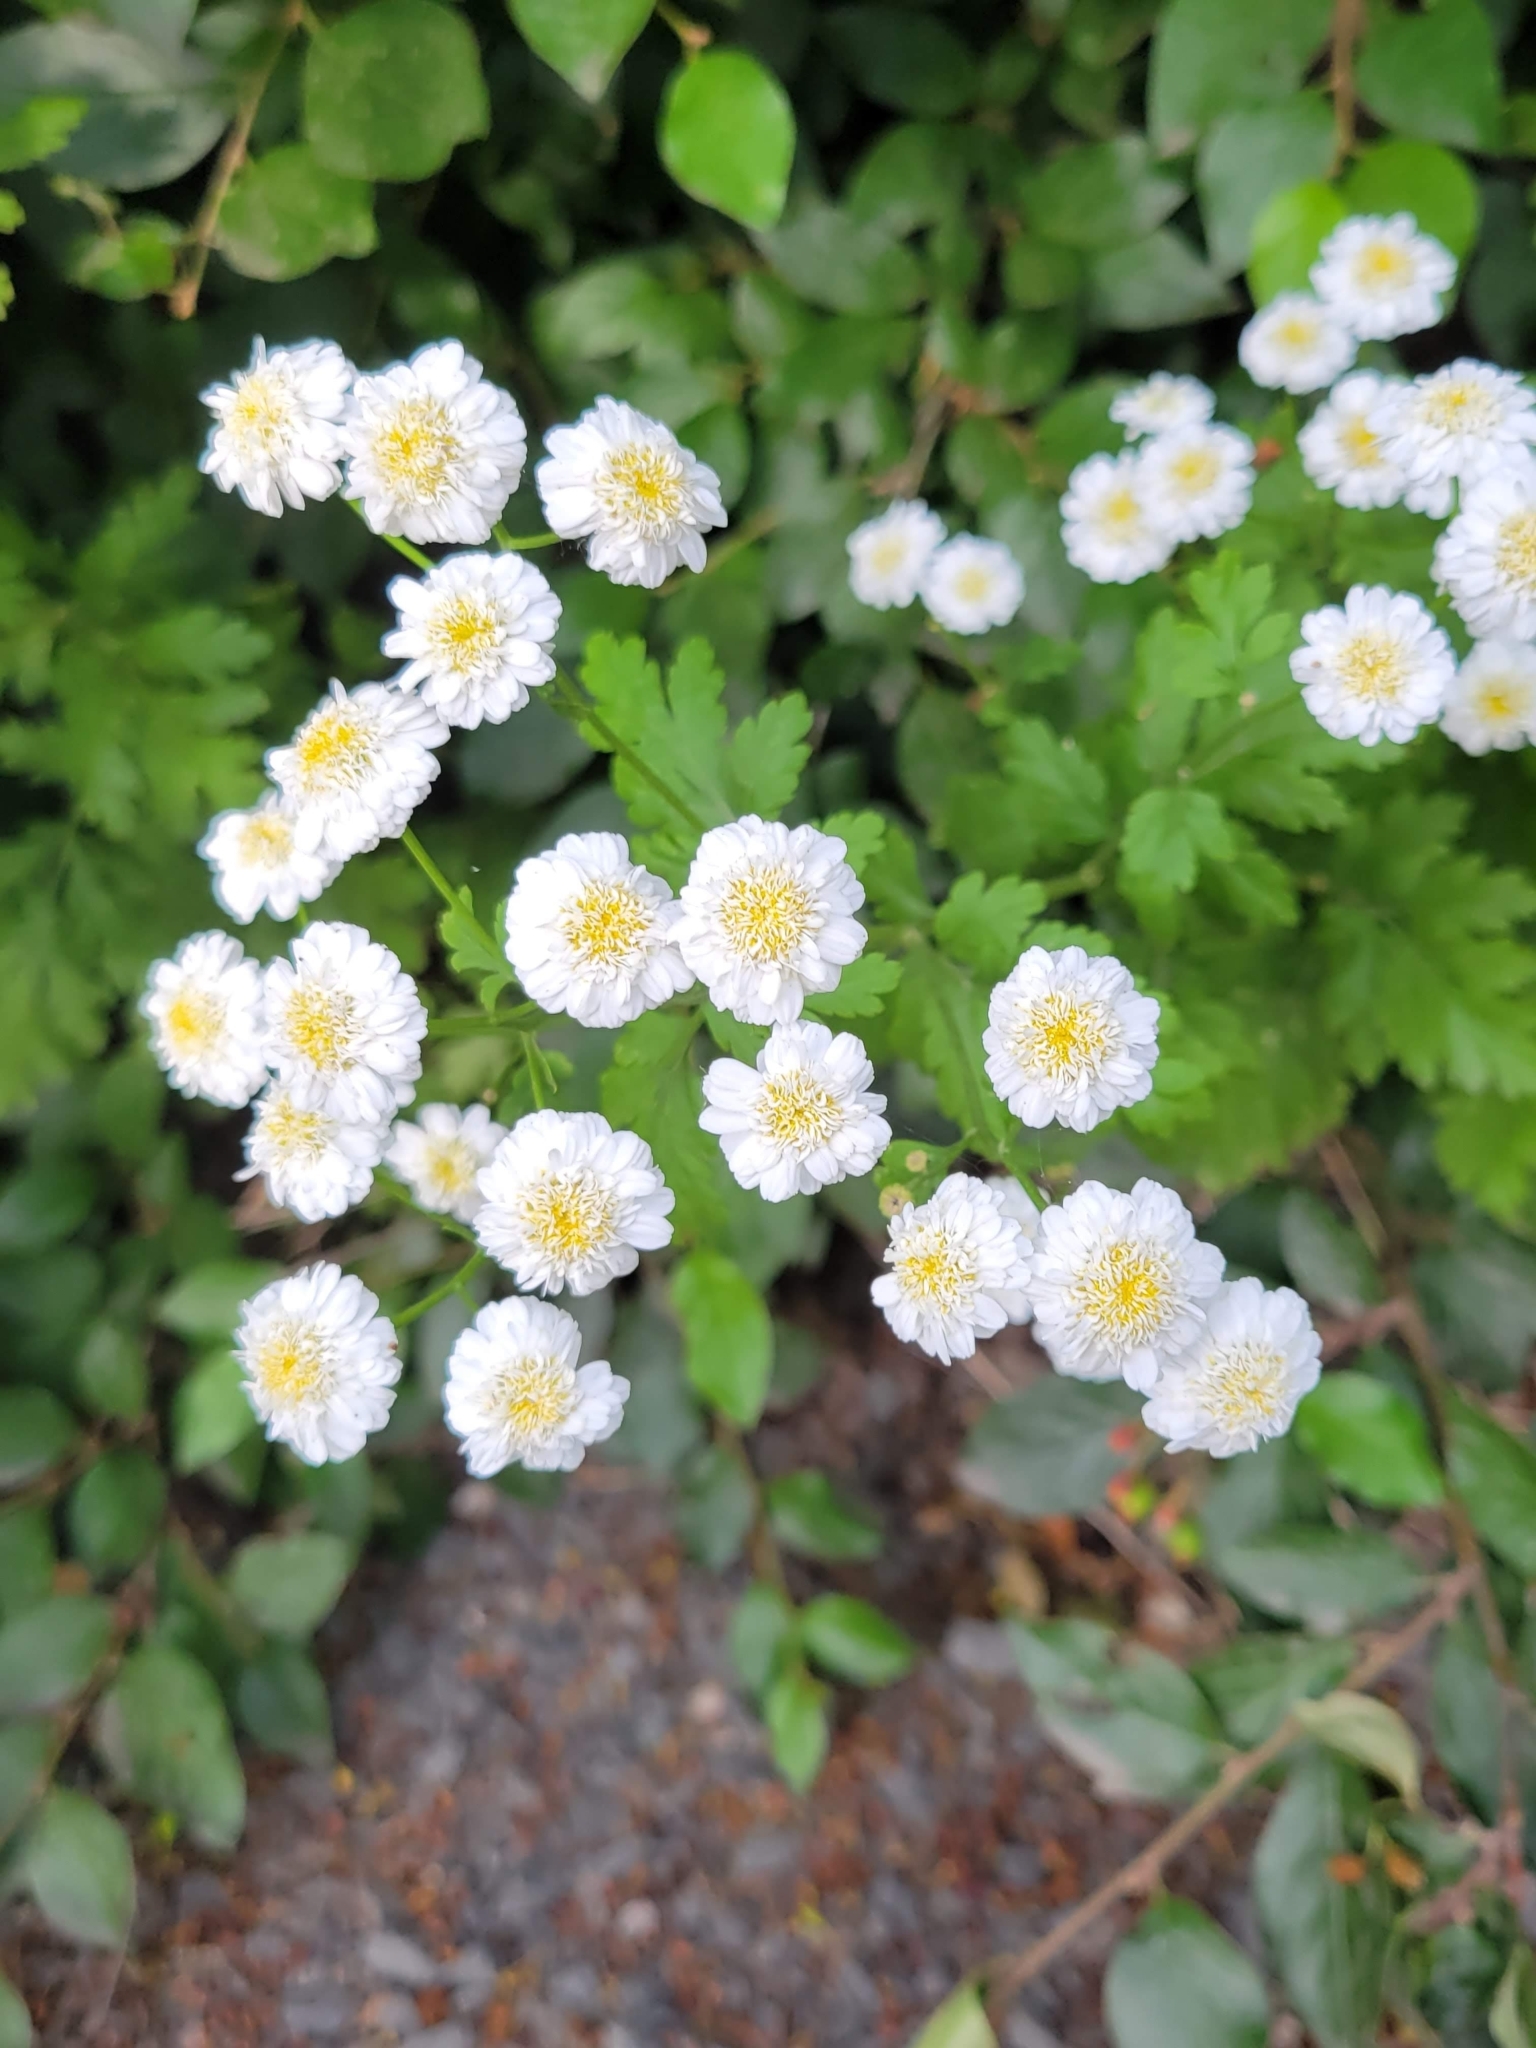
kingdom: Plantae
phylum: Tracheophyta
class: Magnoliopsida
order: Asterales
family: Asteraceae
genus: Tanacetum
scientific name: Tanacetum parthenium
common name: Feverfew
